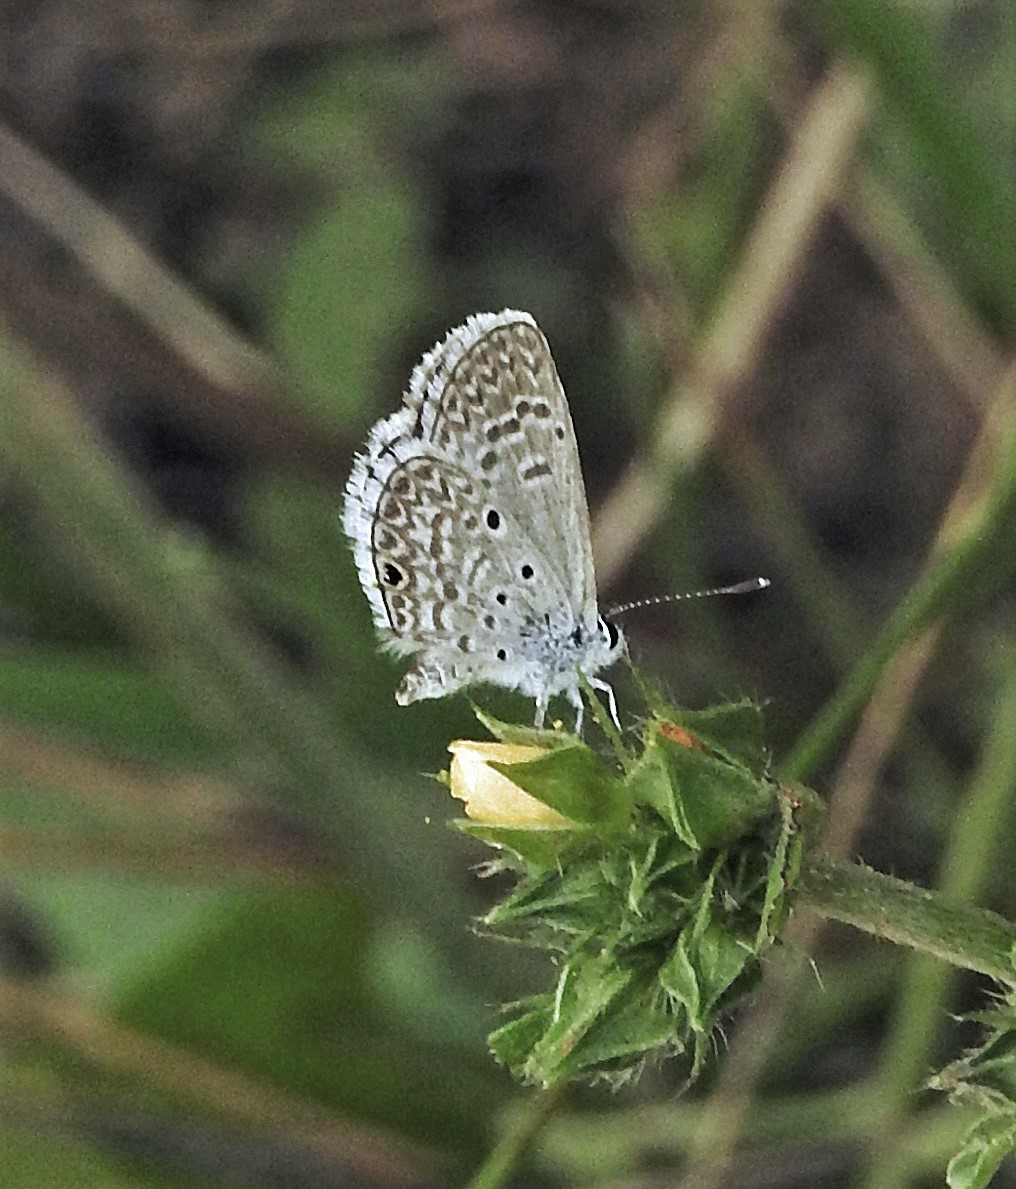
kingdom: Animalia
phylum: Arthropoda
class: Insecta
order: Lepidoptera
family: Lycaenidae
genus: Hemiargus
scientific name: Hemiargus hanno
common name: Common blue
